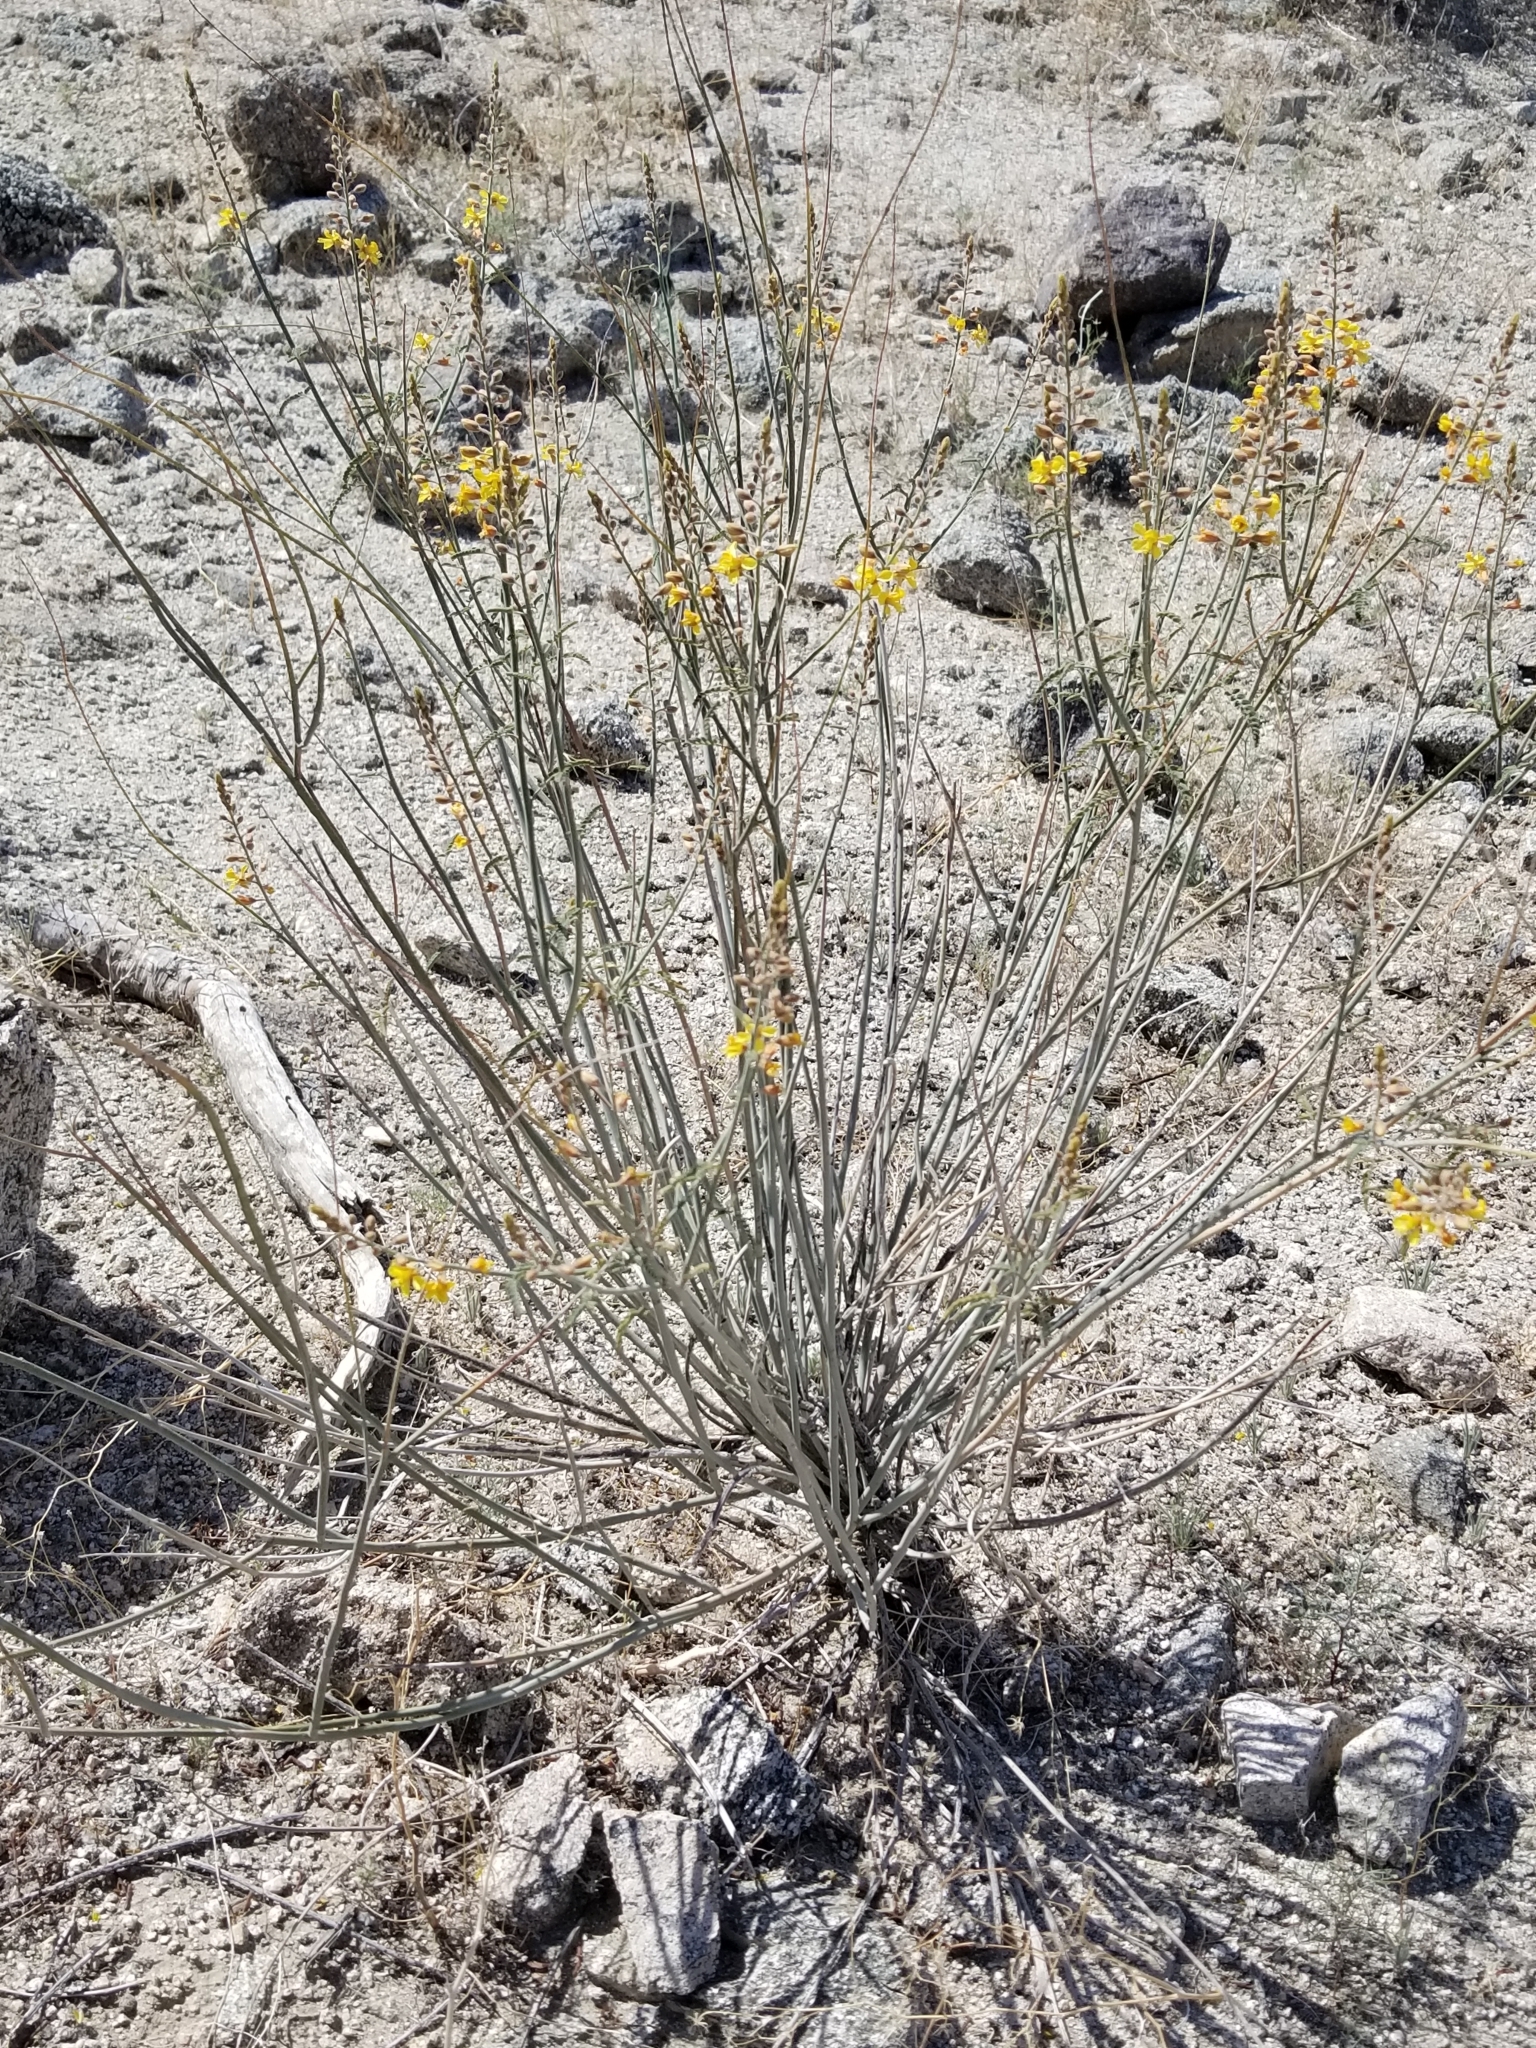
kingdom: Plantae
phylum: Tracheophyta
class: Magnoliopsida
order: Fabales
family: Fabaceae
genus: Hoffmannseggia
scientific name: Hoffmannseggia microphylla
